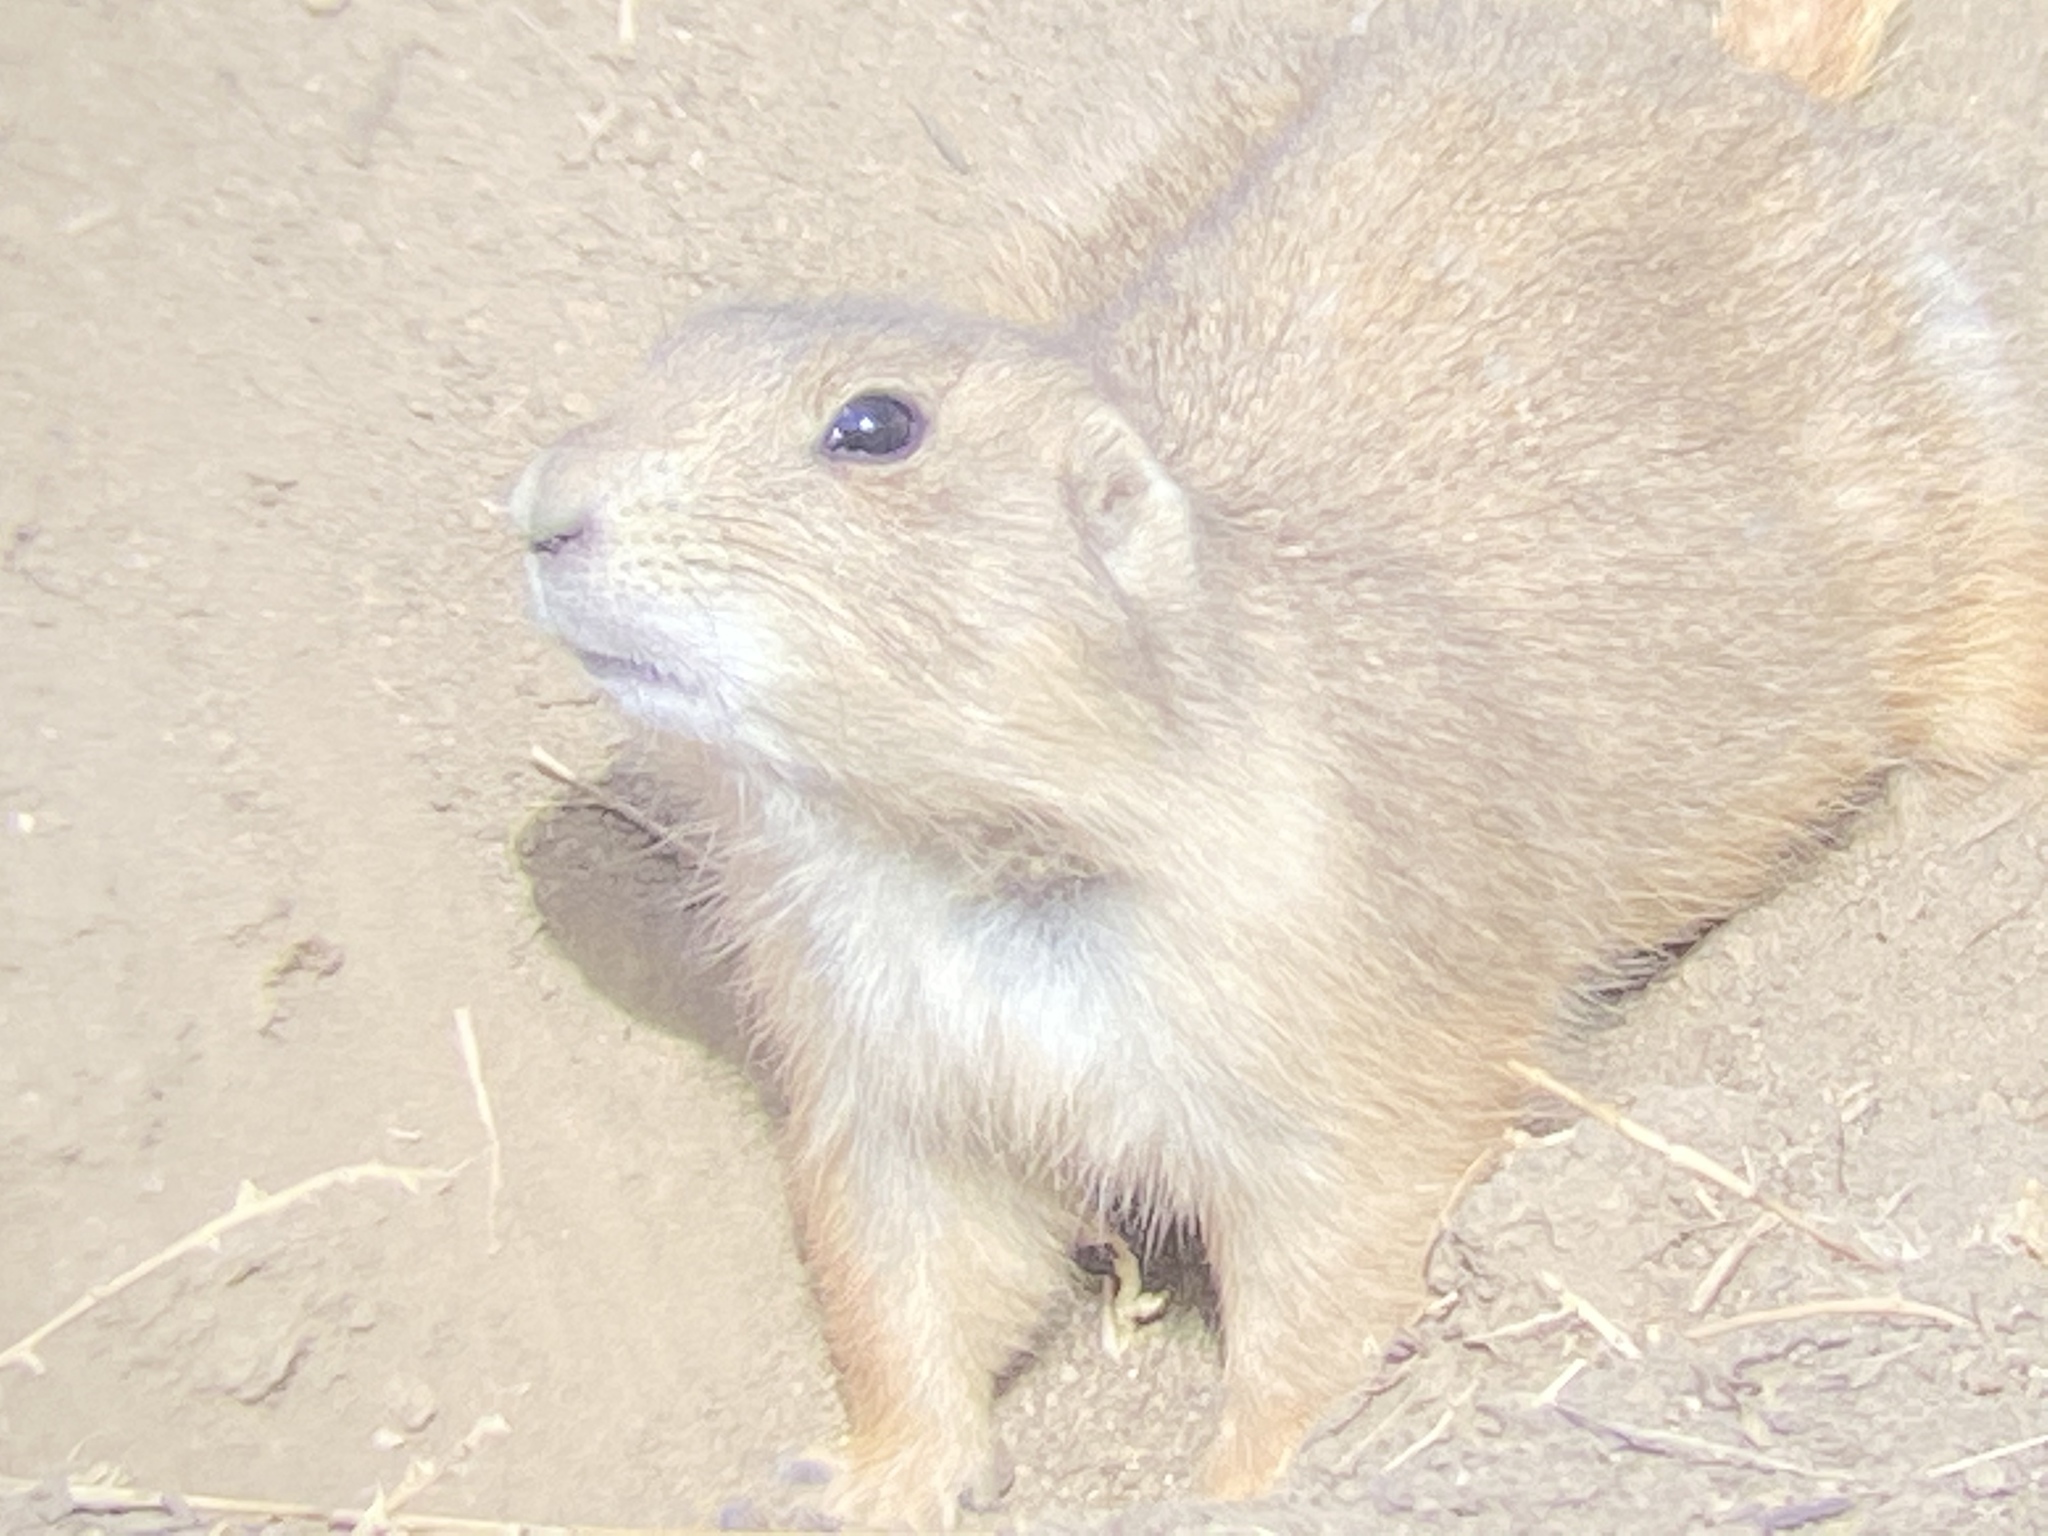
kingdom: Animalia
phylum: Chordata
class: Mammalia
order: Rodentia
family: Sciuridae
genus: Cynomys
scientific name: Cynomys ludovicianus
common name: Black-tailed prairie dog
